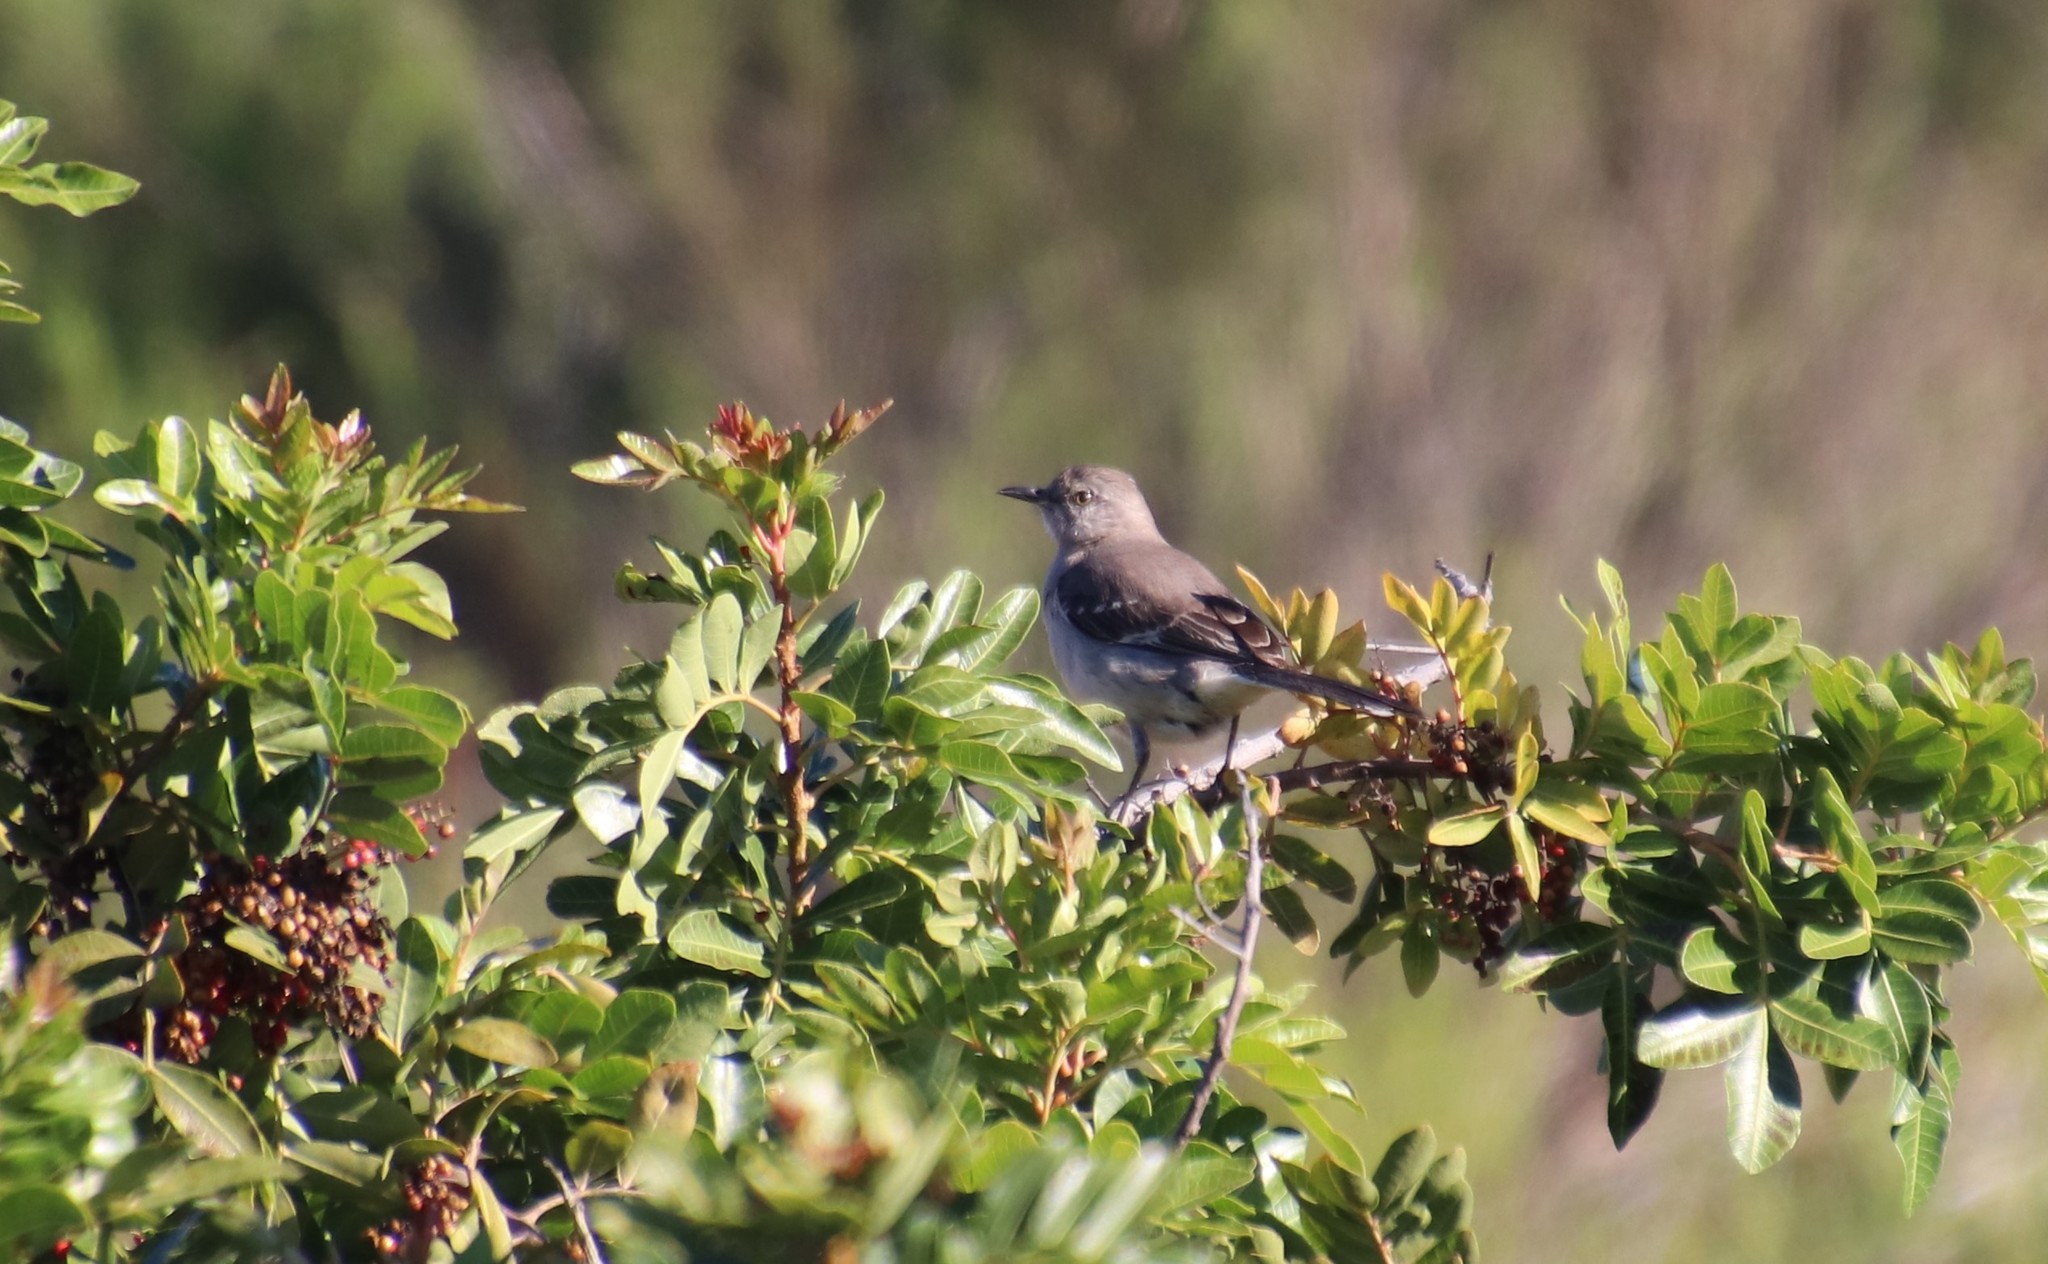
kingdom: Animalia
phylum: Chordata
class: Aves
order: Passeriformes
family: Mimidae
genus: Mimus
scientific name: Mimus polyglottos
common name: Northern mockingbird
